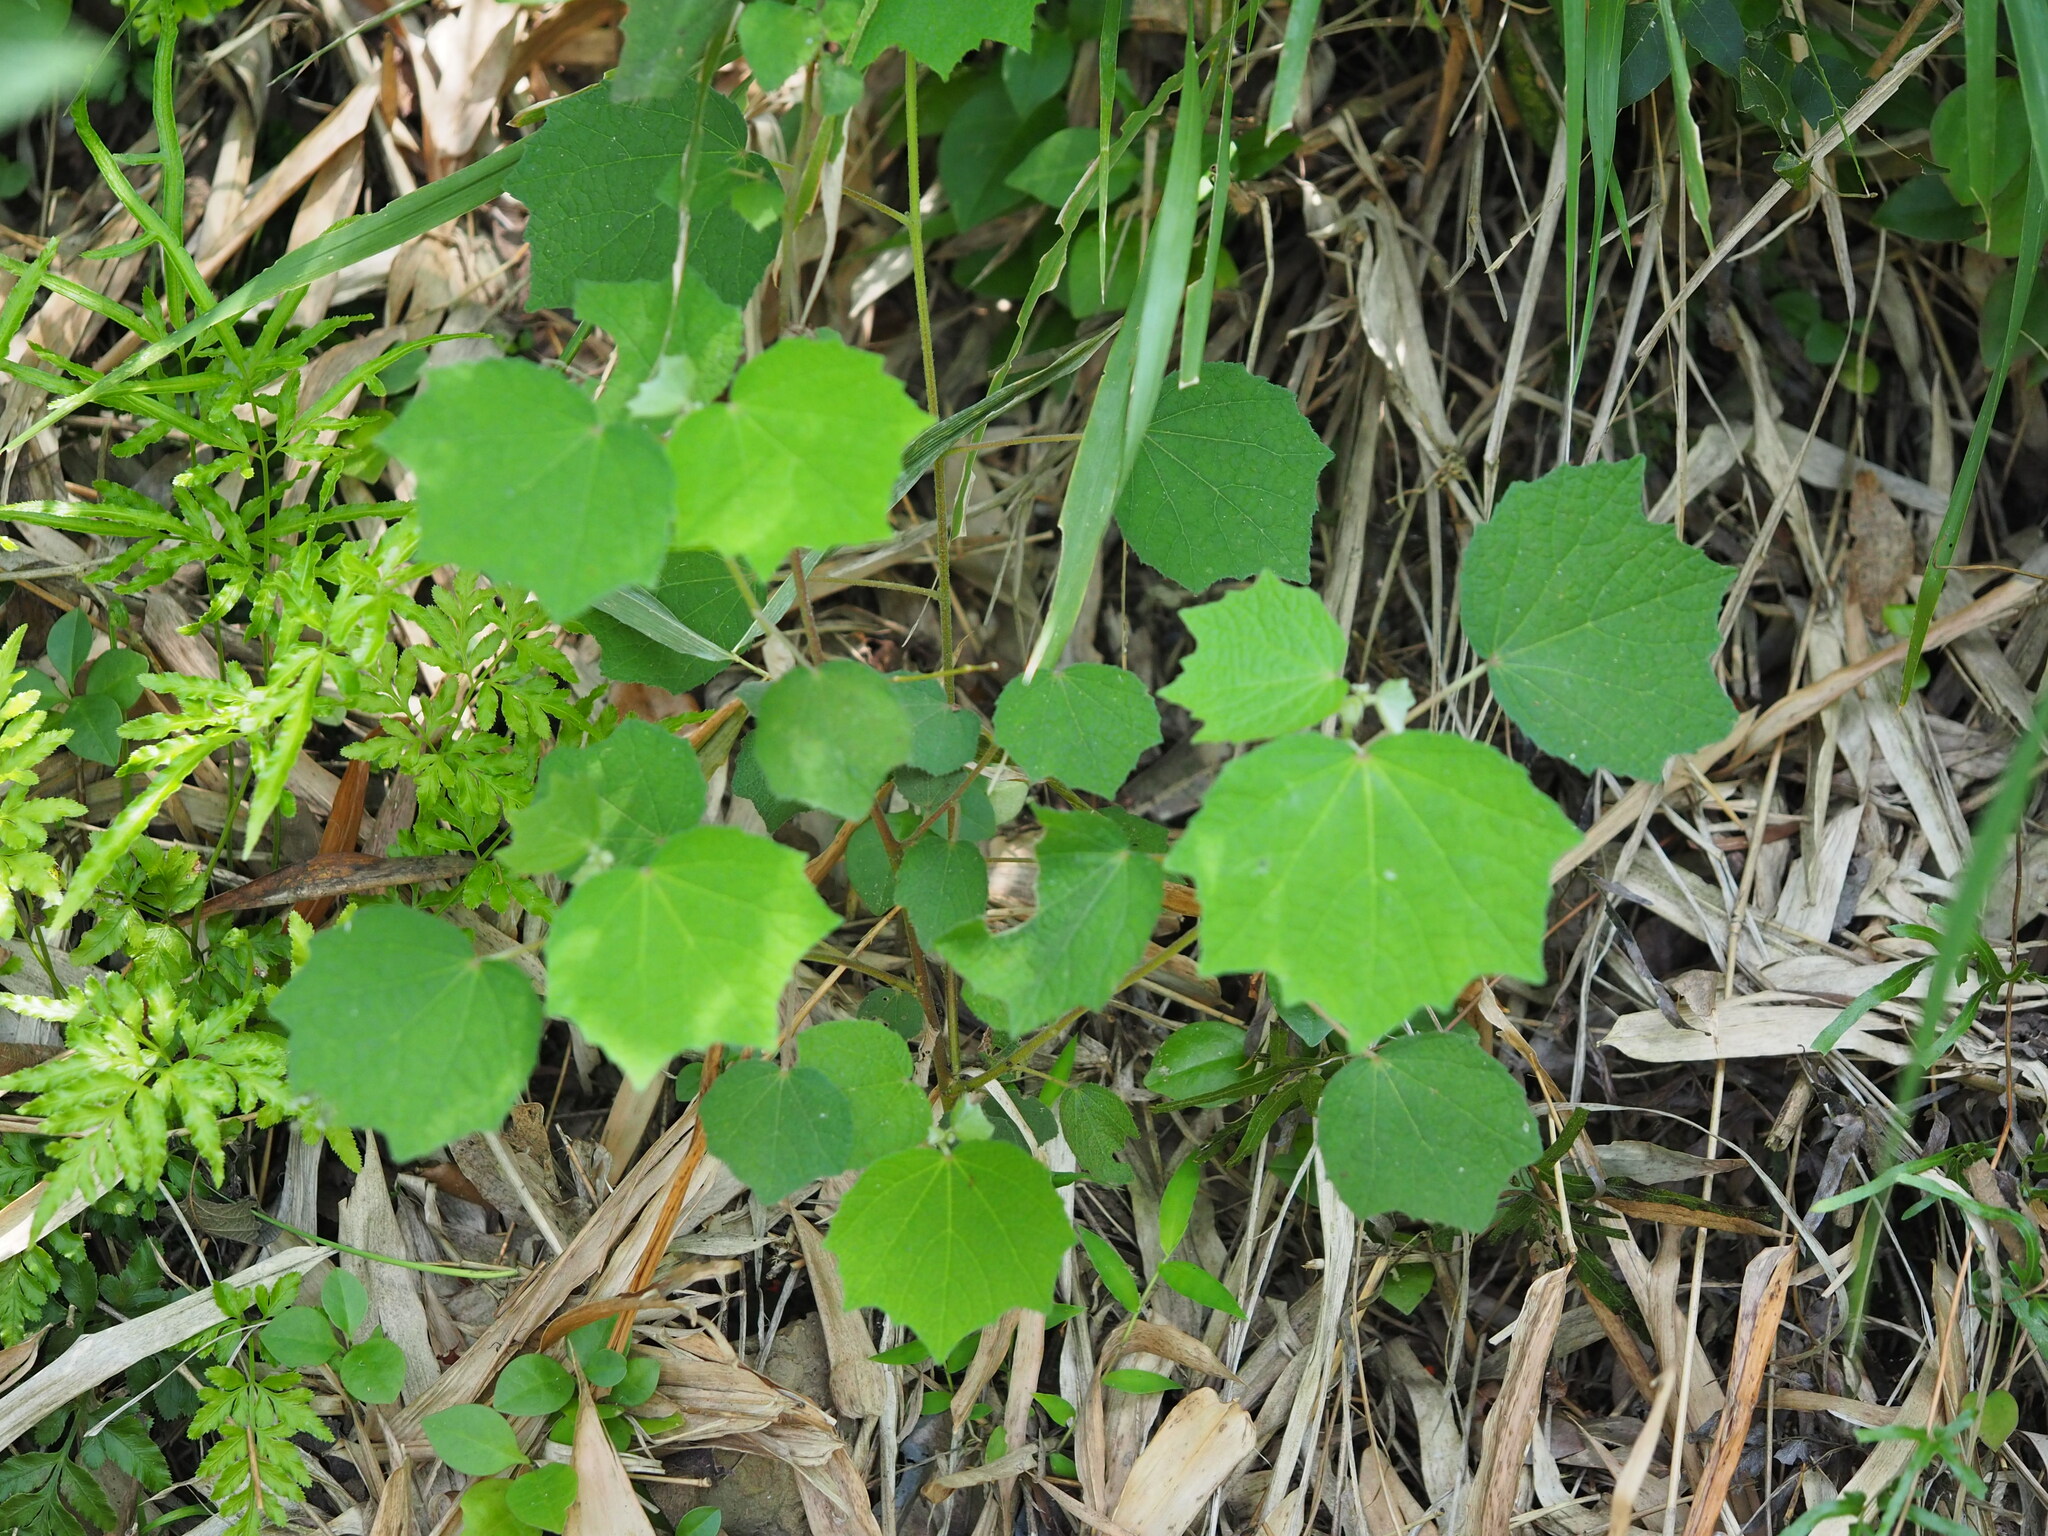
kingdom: Plantae
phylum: Tracheophyta
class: Magnoliopsida
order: Malvales
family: Malvaceae
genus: Urena
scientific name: Urena lobata
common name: Caesarweed
